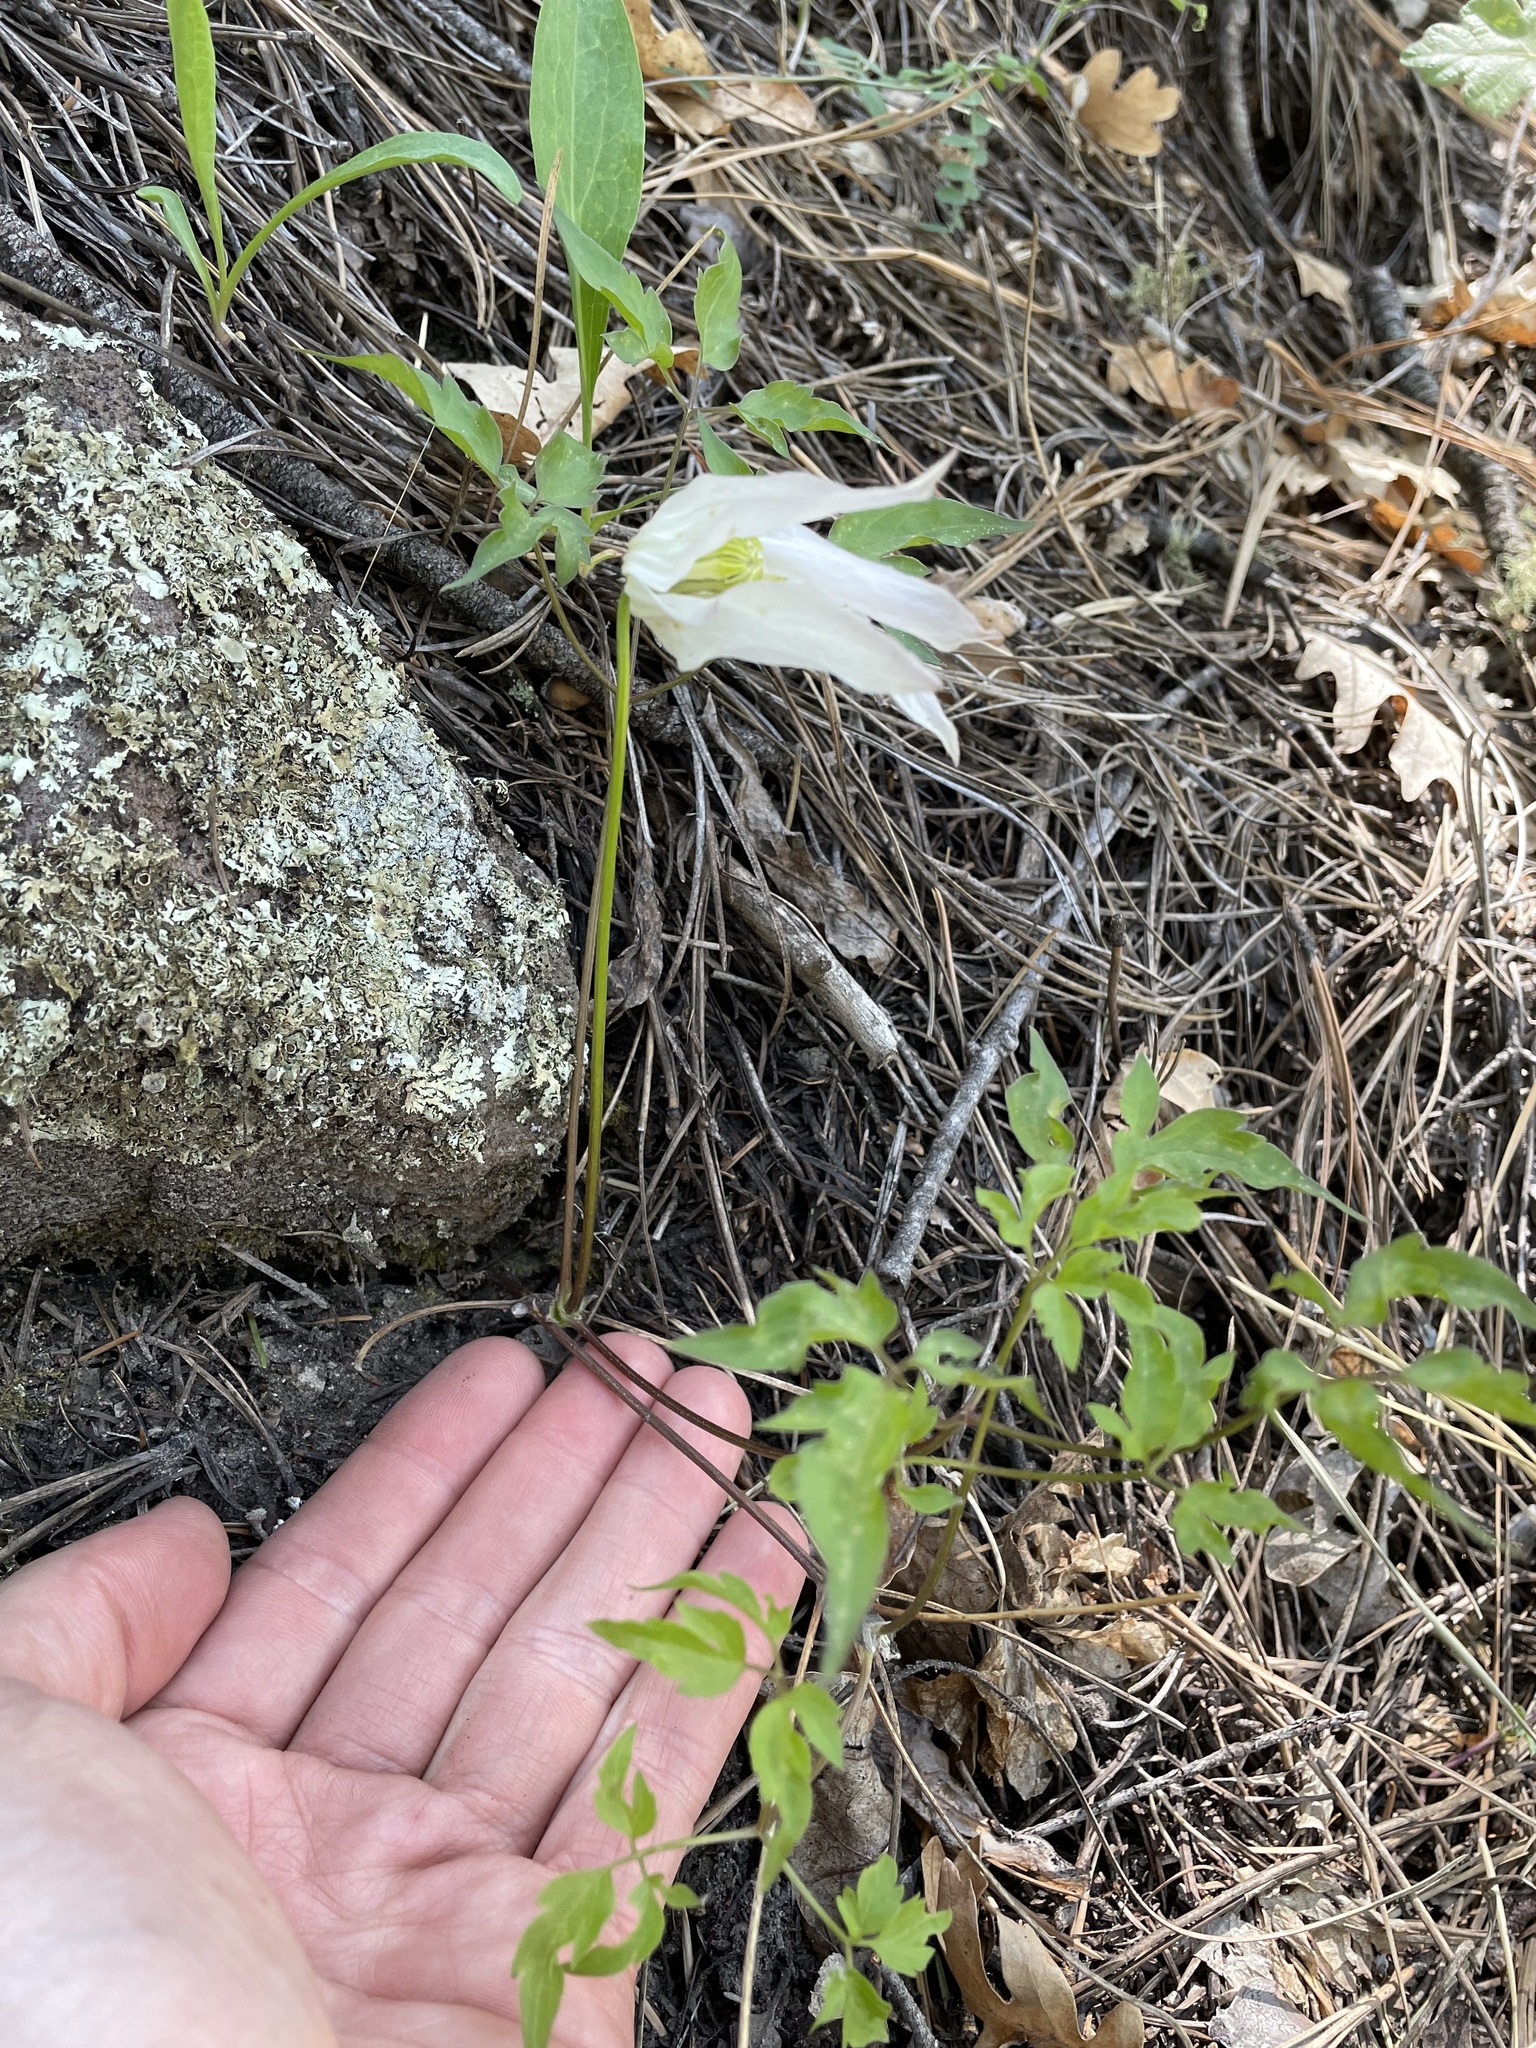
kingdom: Plantae
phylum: Tracheophyta
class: Magnoliopsida
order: Ranunculales
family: Ranunculaceae
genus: Clematis
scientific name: Clematis columbiana
